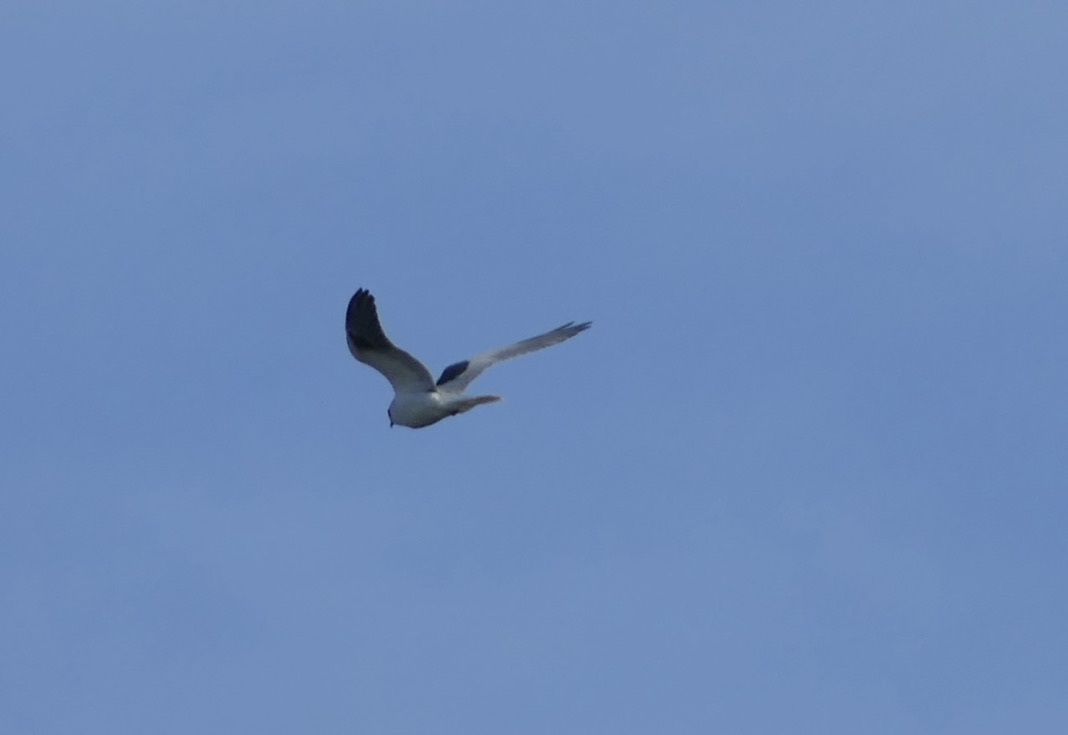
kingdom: Animalia
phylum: Chordata
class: Aves
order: Accipitriformes
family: Accipitridae
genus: Elanus
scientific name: Elanus leucurus
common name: White-tailed kite
